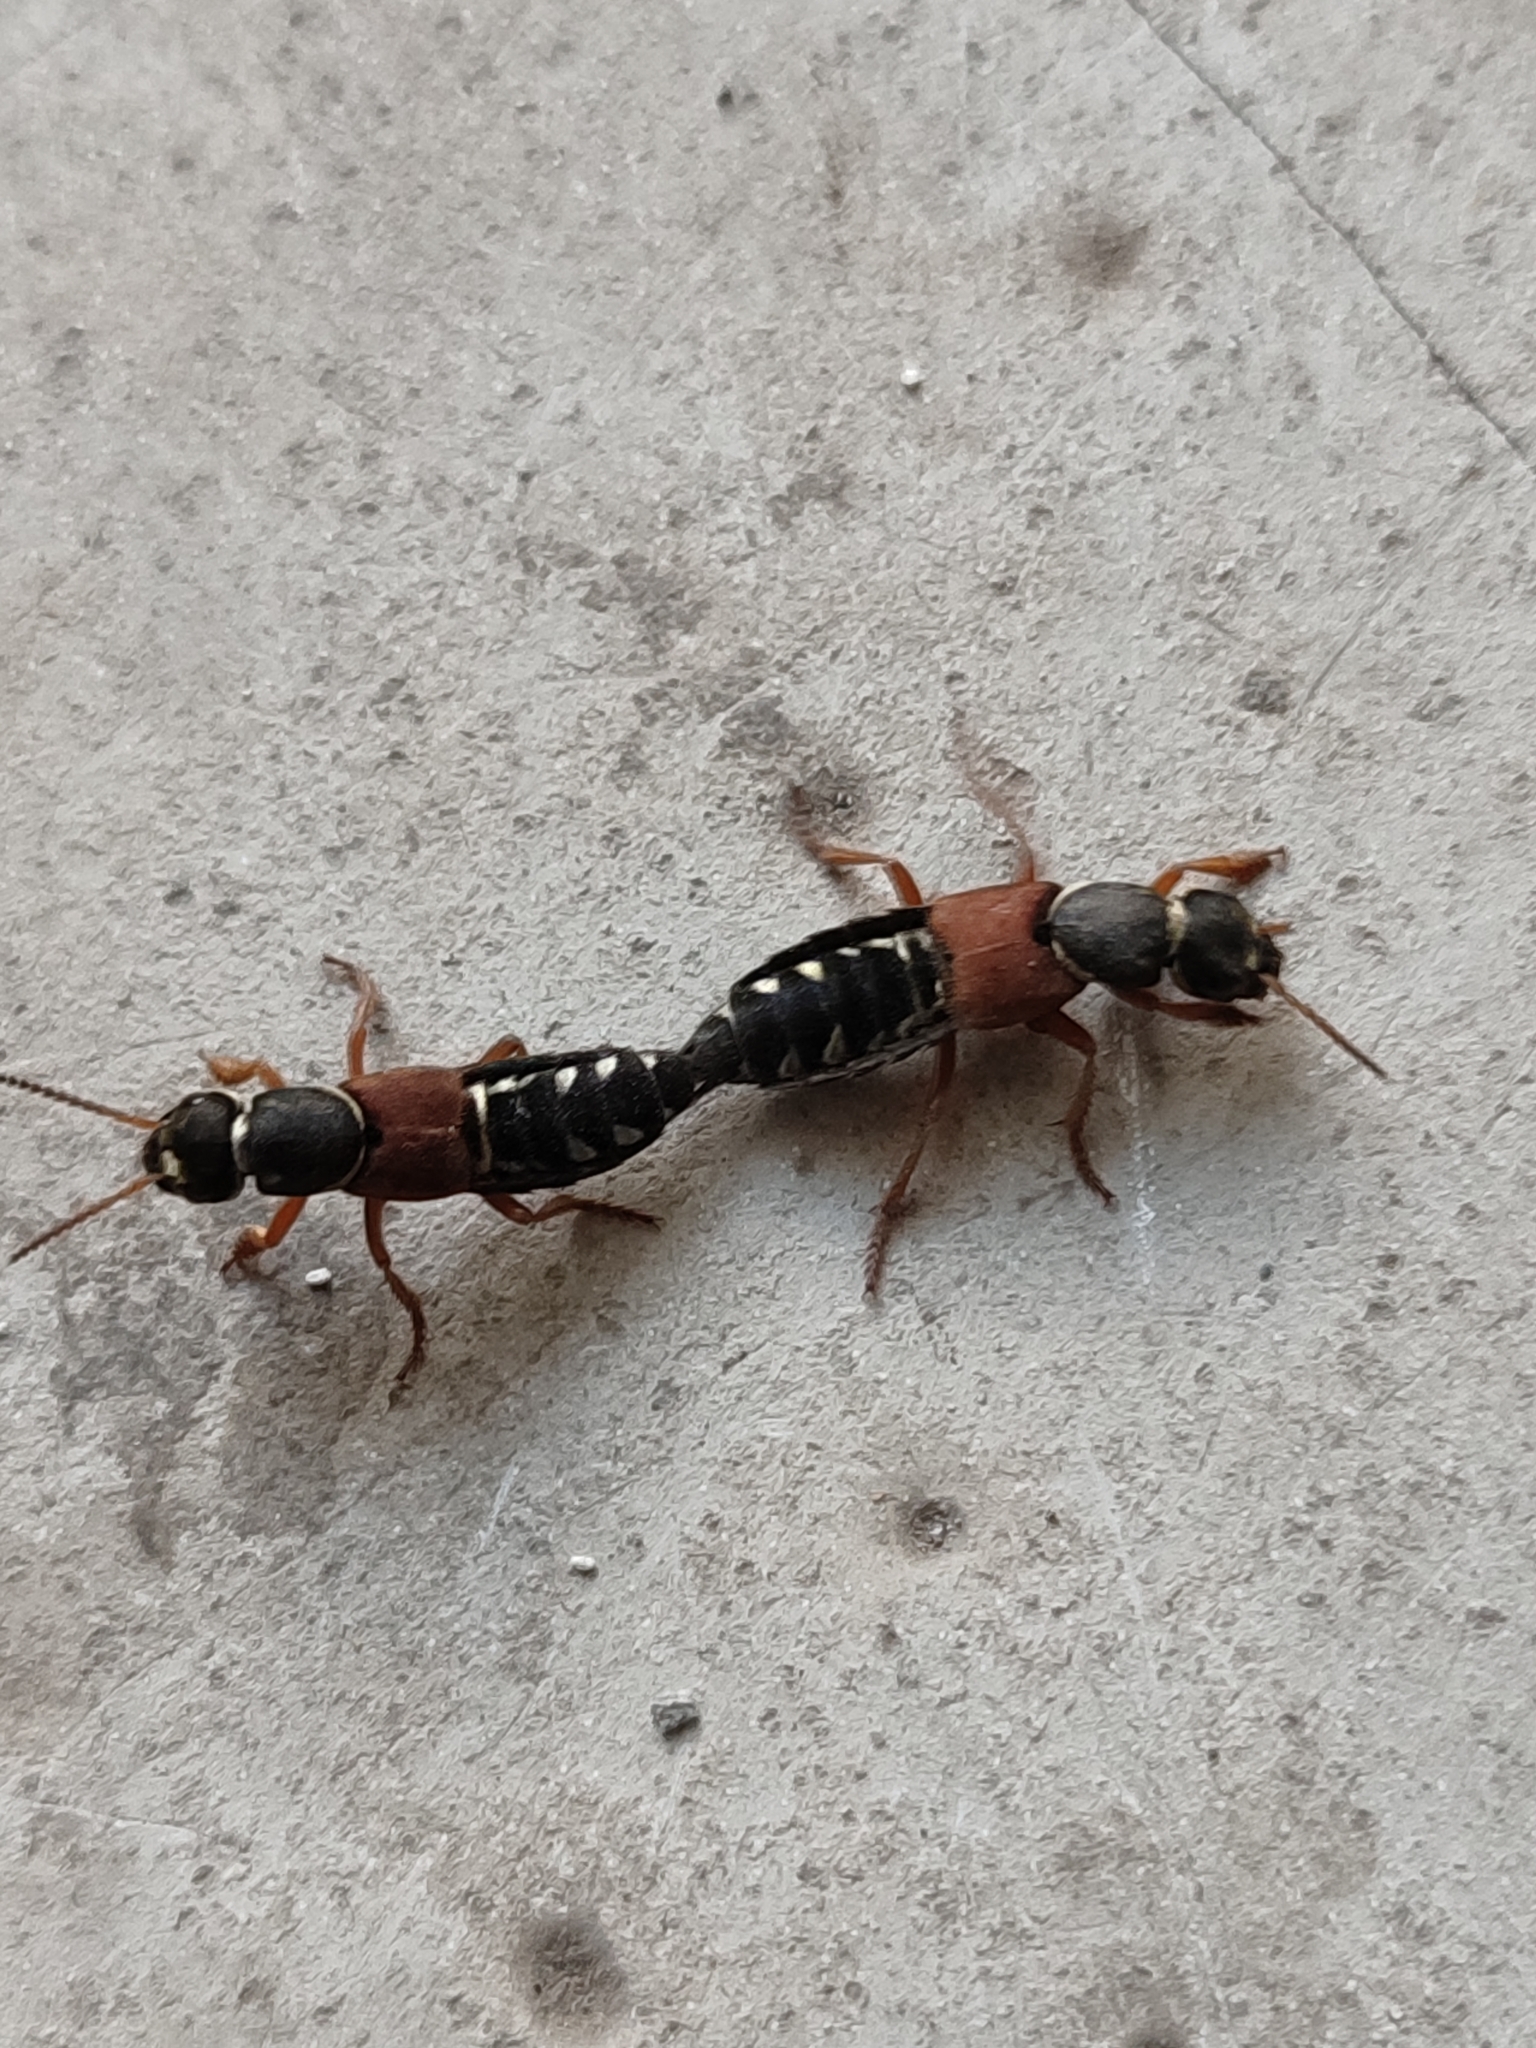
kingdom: Animalia
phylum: Arthropoda
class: Insecta
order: Coleoptera
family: Staphylinidae
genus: Staphylinus
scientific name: Staphylinus caesareus
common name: Staph beetle
